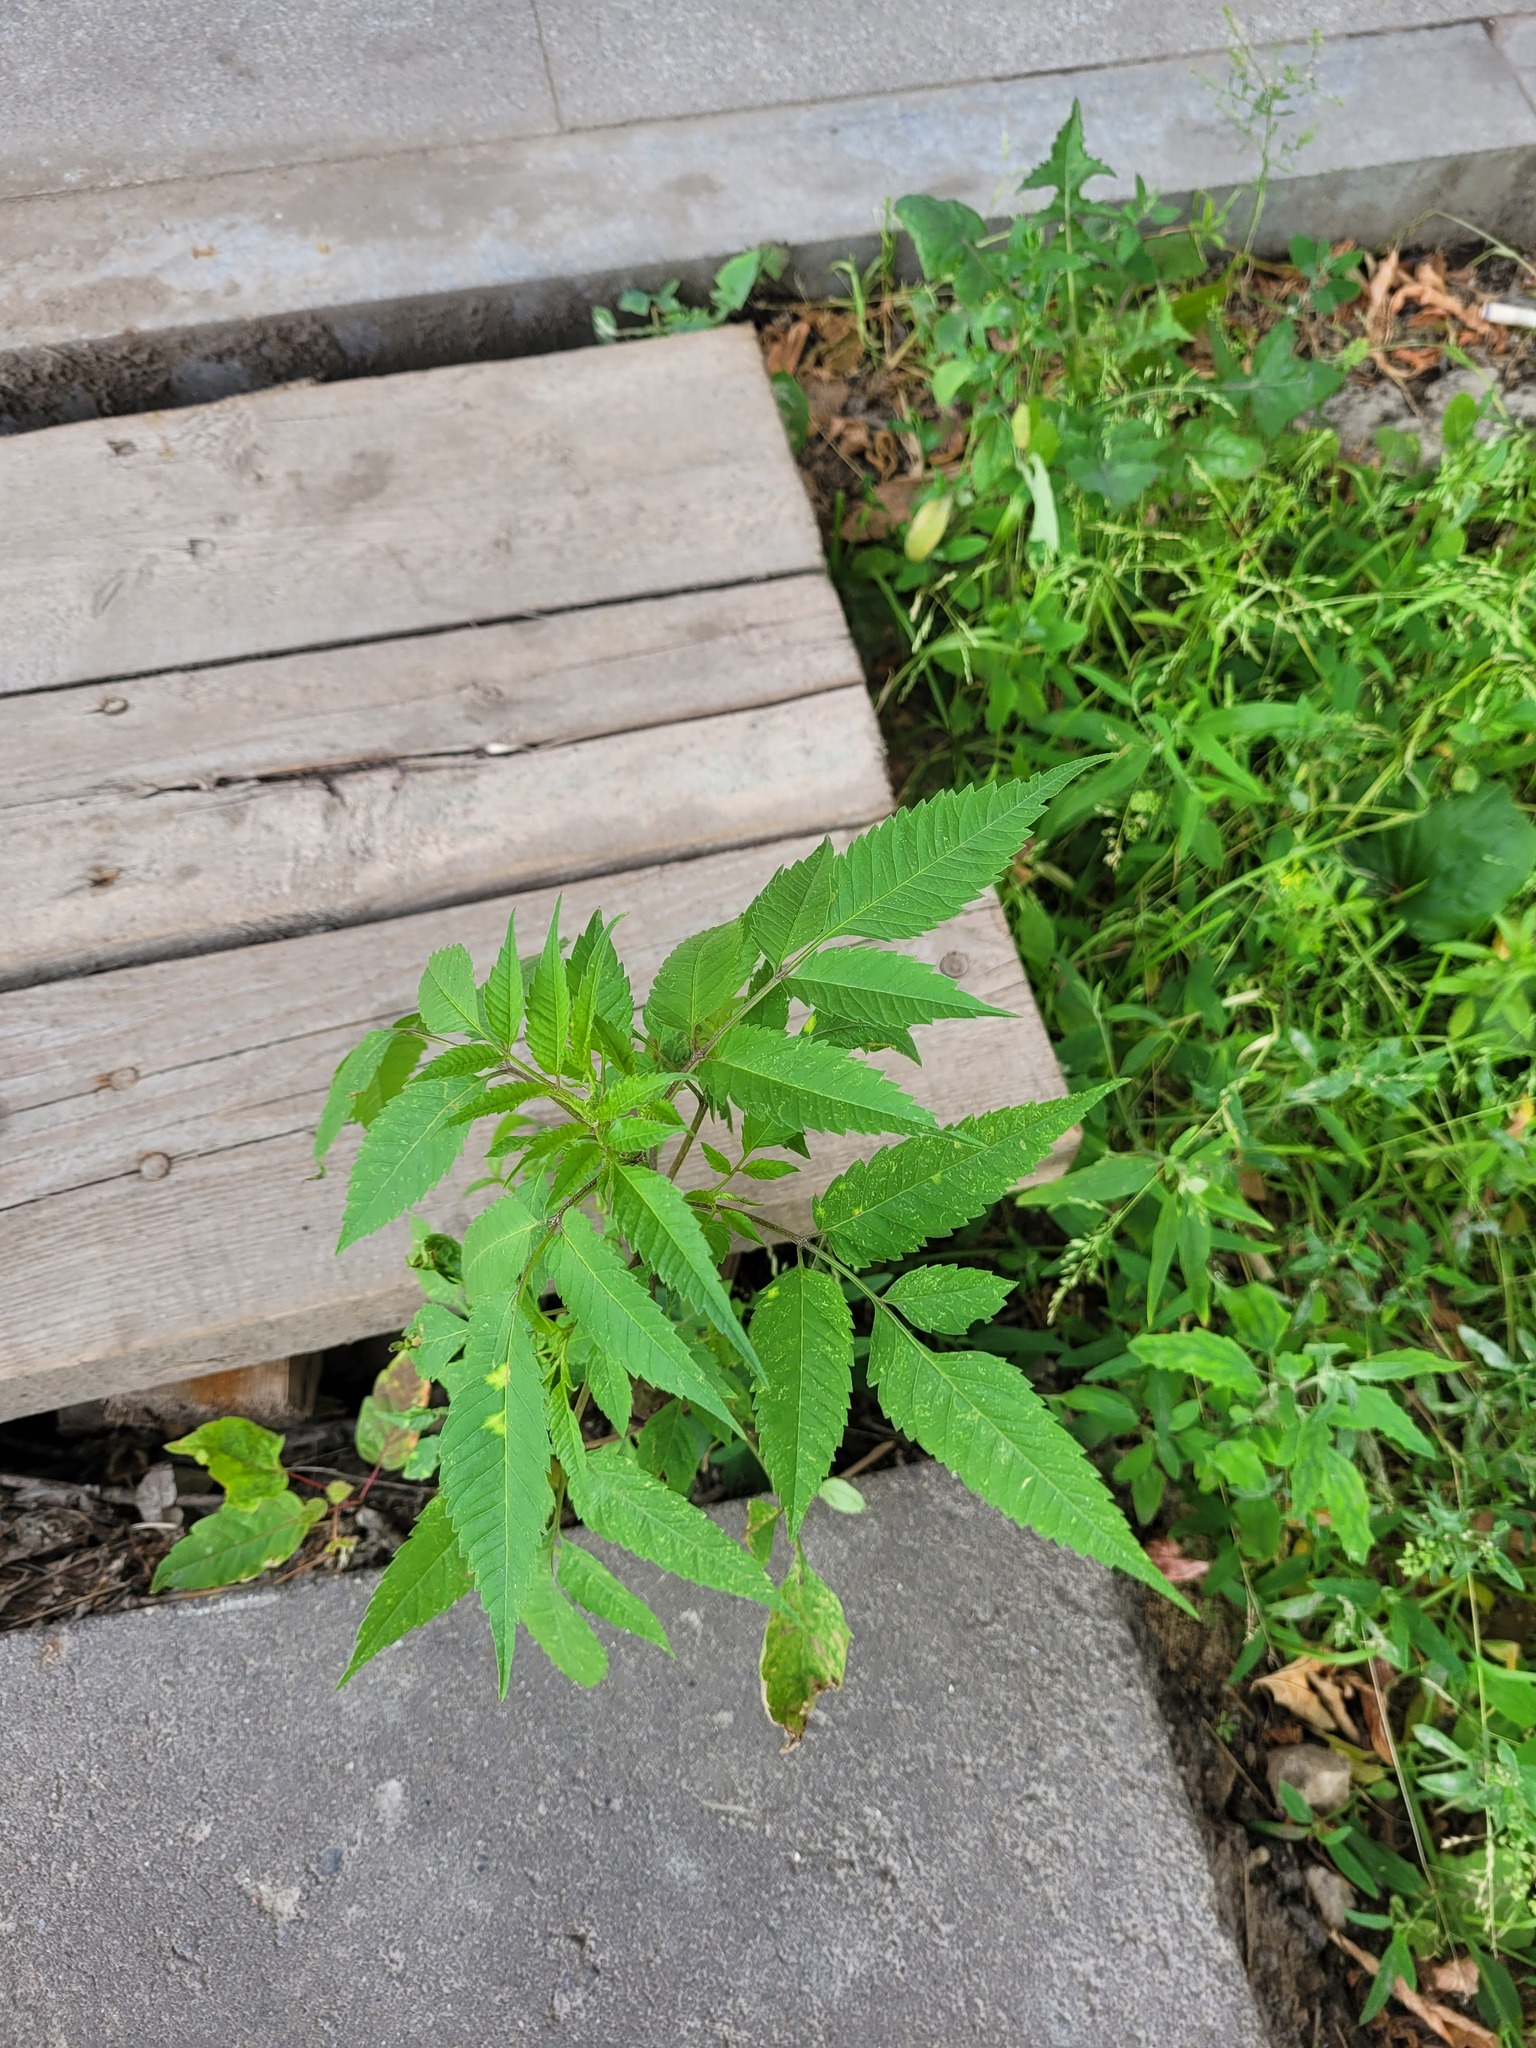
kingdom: Plantae
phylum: Tracheophyta
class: Magnoliopsida
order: Asterales
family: Asteraceae
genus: Bidens
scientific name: Bidens frondosa
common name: Beggarticks
